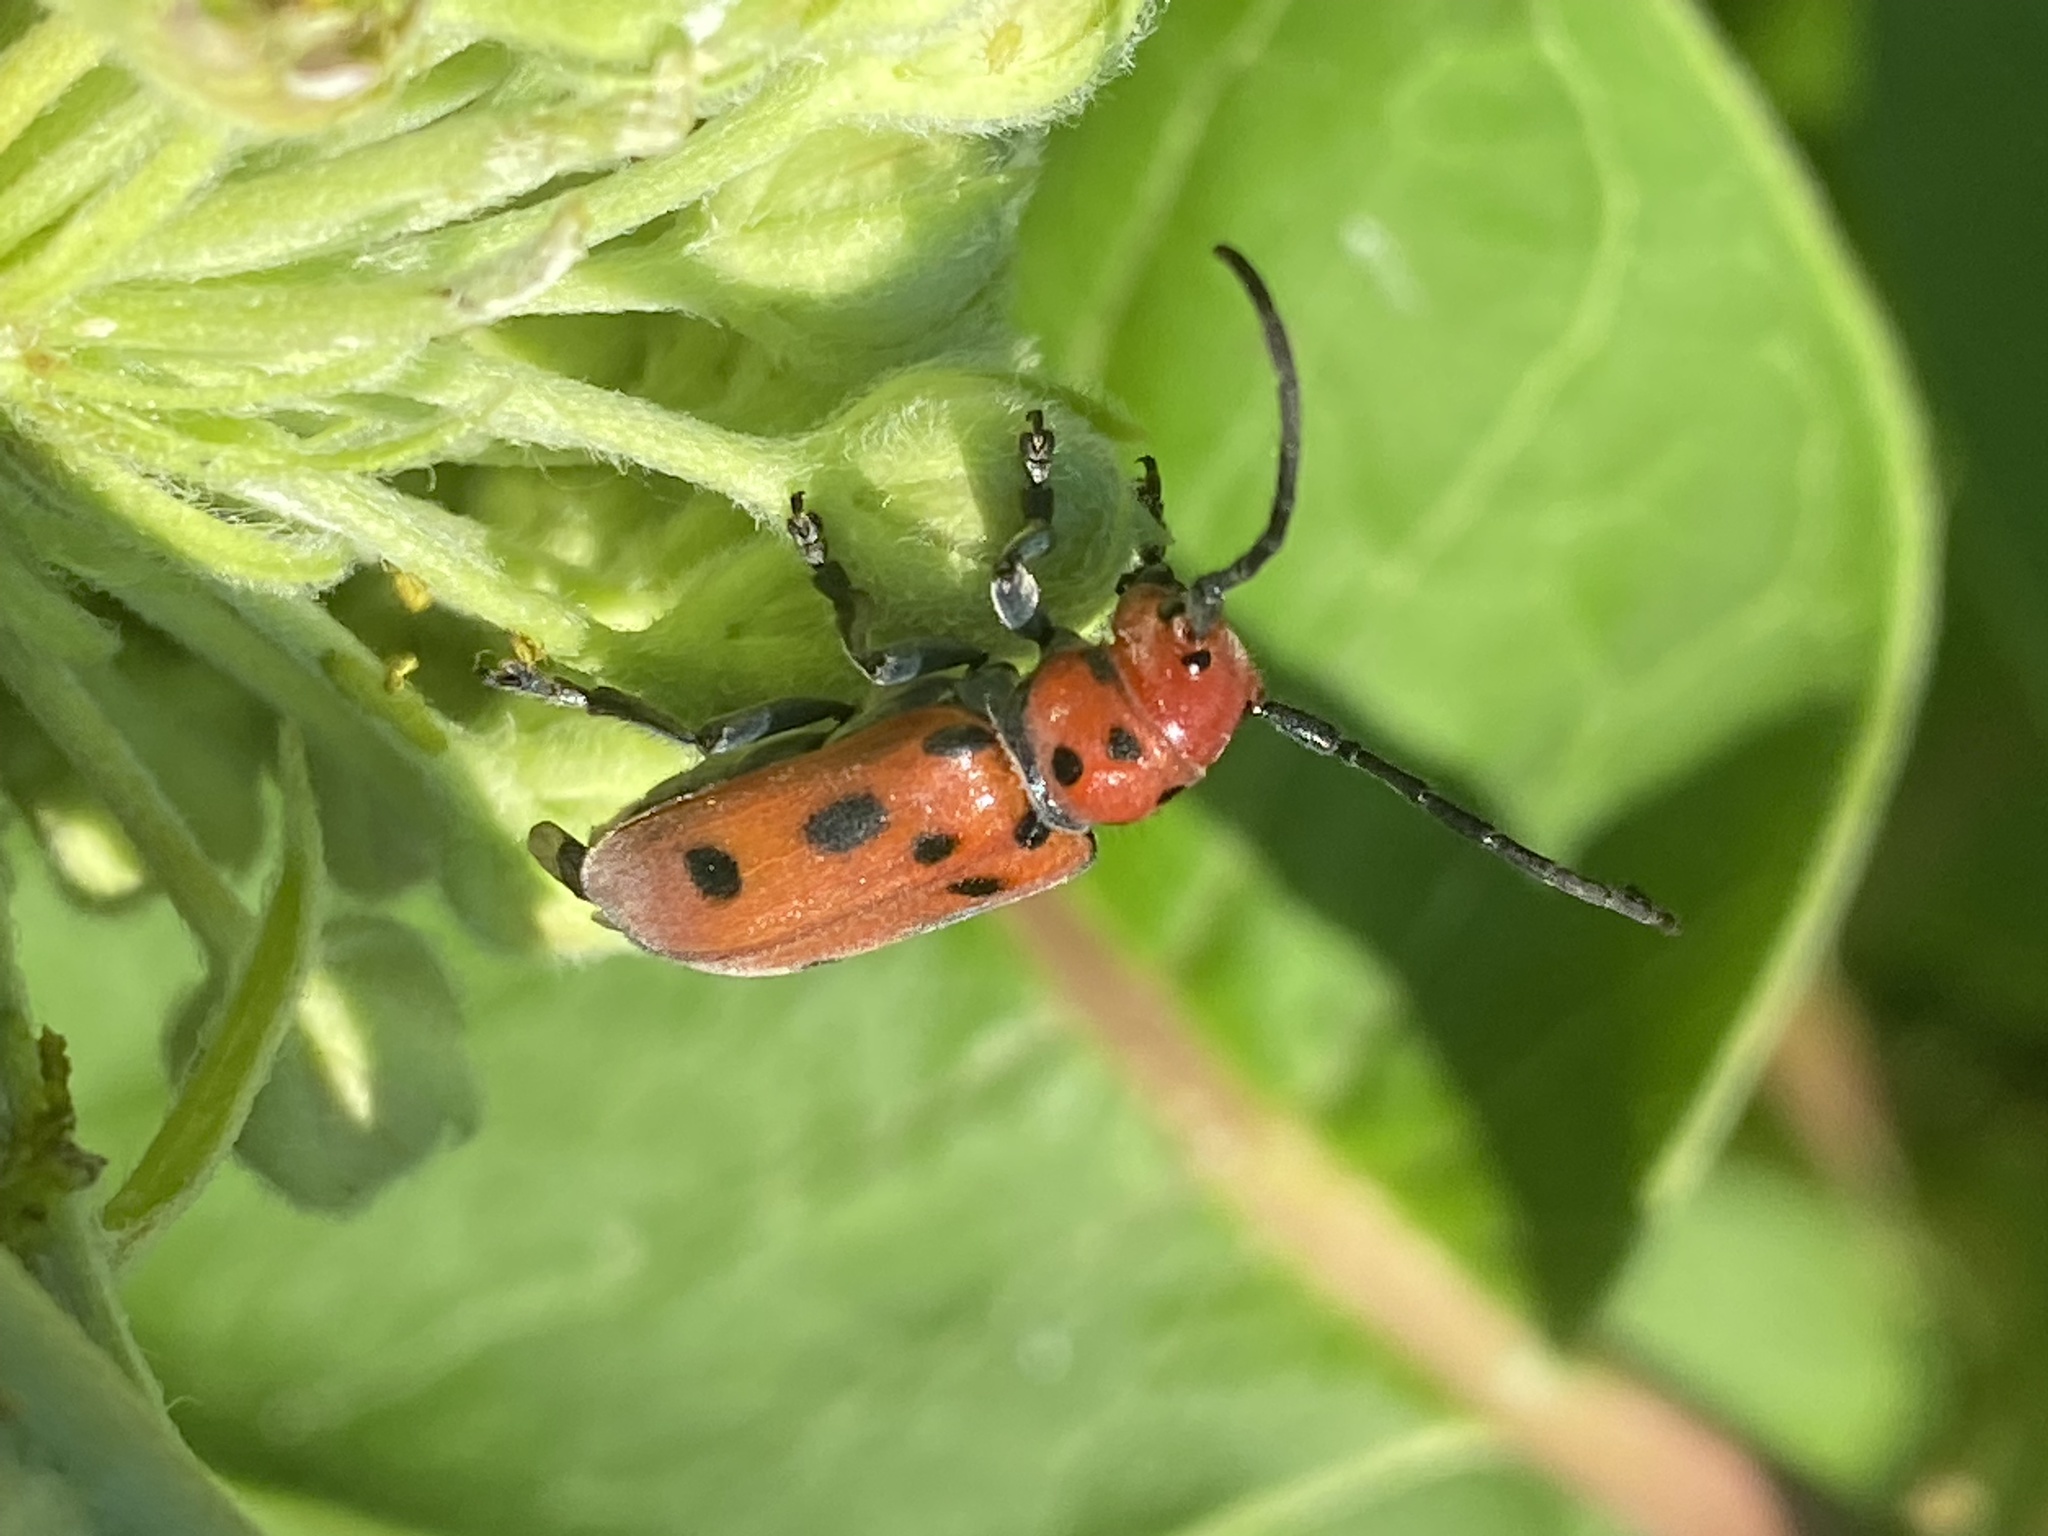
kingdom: Animalia
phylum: Arthropoda
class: Insecta
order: Coleoptera
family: Cerambycidae
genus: Tetraopes
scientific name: Tetraopes tetrophthalmus
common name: Red milkweed beetle
